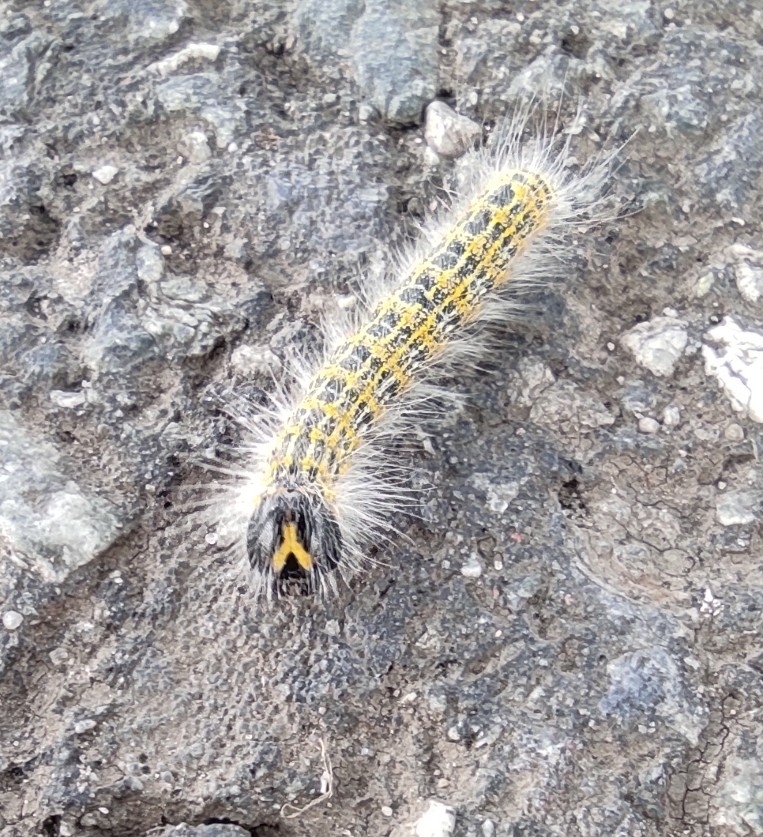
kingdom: Animalia
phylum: Arthropoda
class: Insecta
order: Lepidoptera
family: Notodontidae
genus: Phalera
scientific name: Phalera bucephala
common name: Buff-tip
